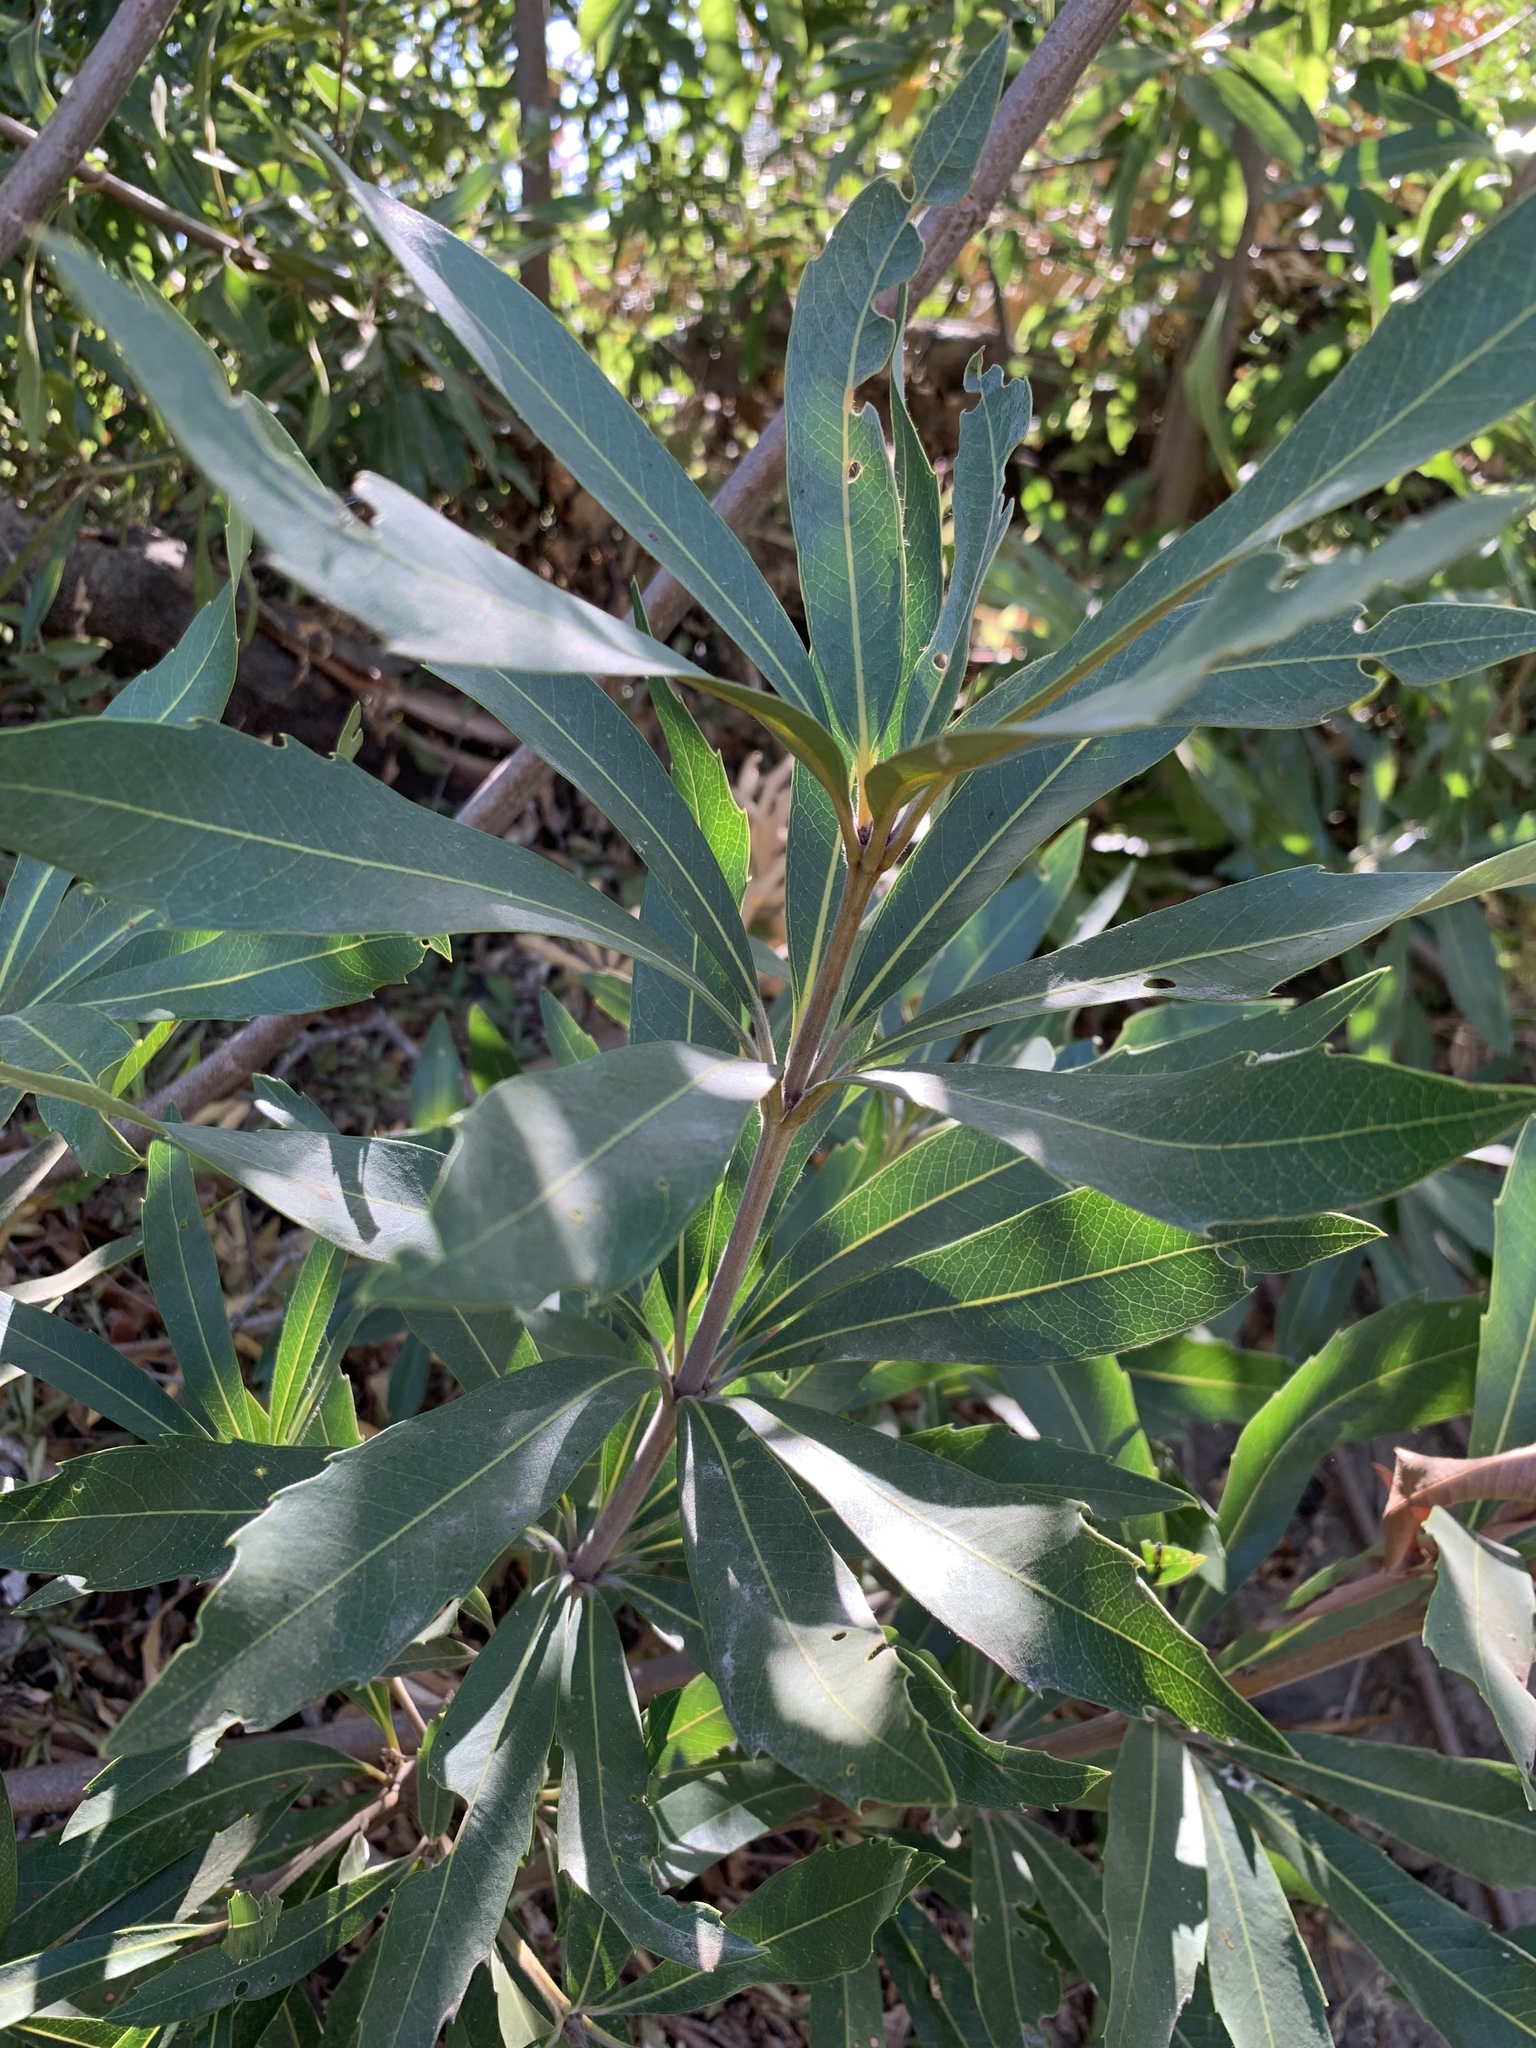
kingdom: Plantae
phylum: Tracheophyta
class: Magnoliopsida
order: Proteales
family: Proteaceae
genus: Brabejum
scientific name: Brabejum stellatifolium
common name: Wild almond
